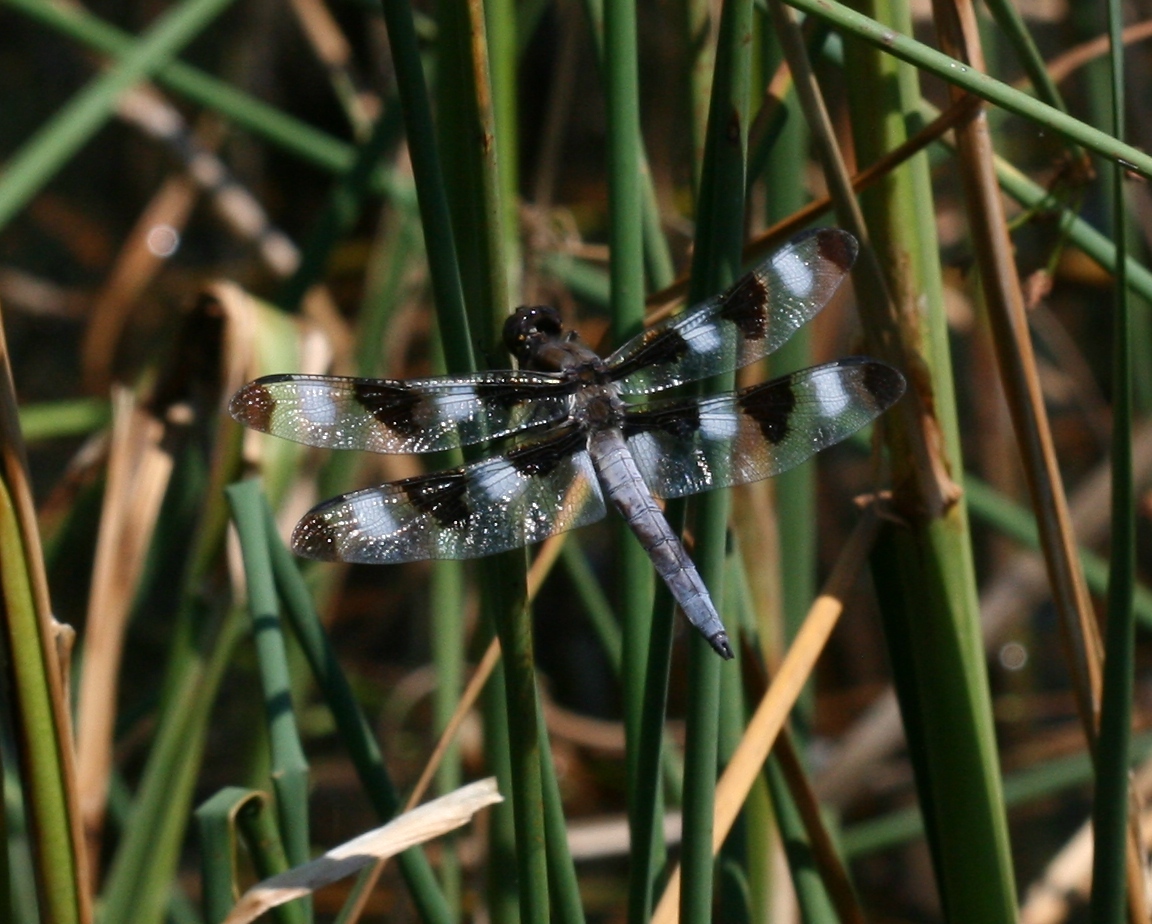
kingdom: Animalia
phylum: Arthropoda
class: Insecta
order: Odonata
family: Libellulidae
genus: Libellula
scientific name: Libellula pulchella
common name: Twelve-spotted skimmer
